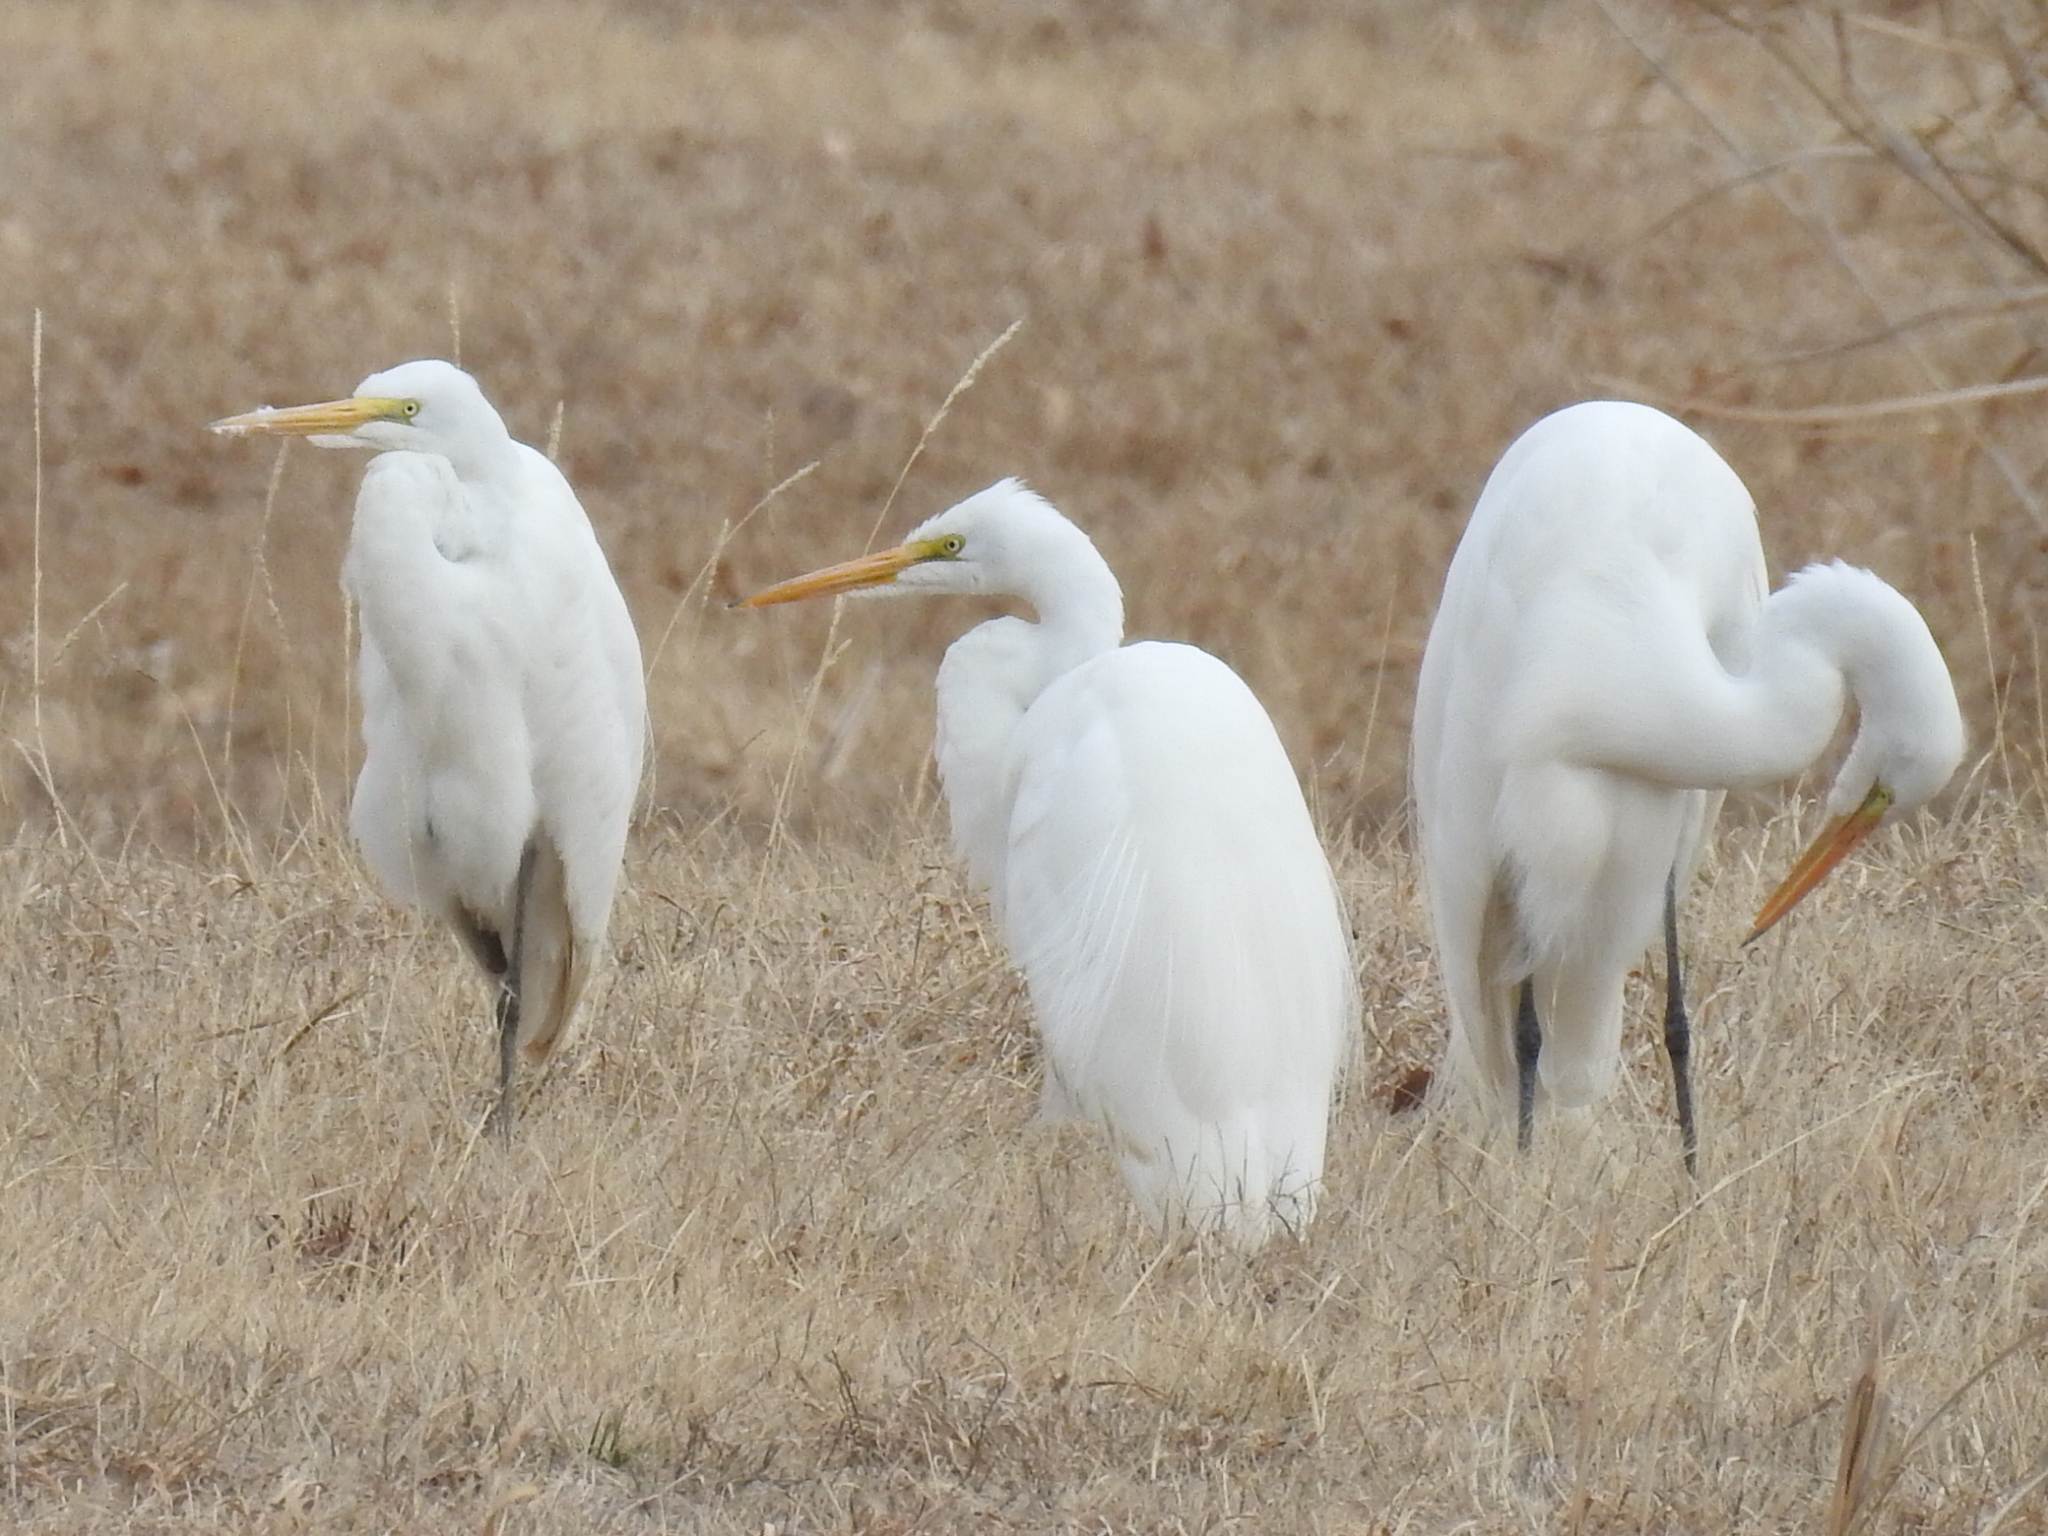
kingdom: Animalia
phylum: Chordata
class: Aves
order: Pelecaniformes
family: Ardeidae
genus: Ardea
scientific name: Ardea alba
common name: Great egret
